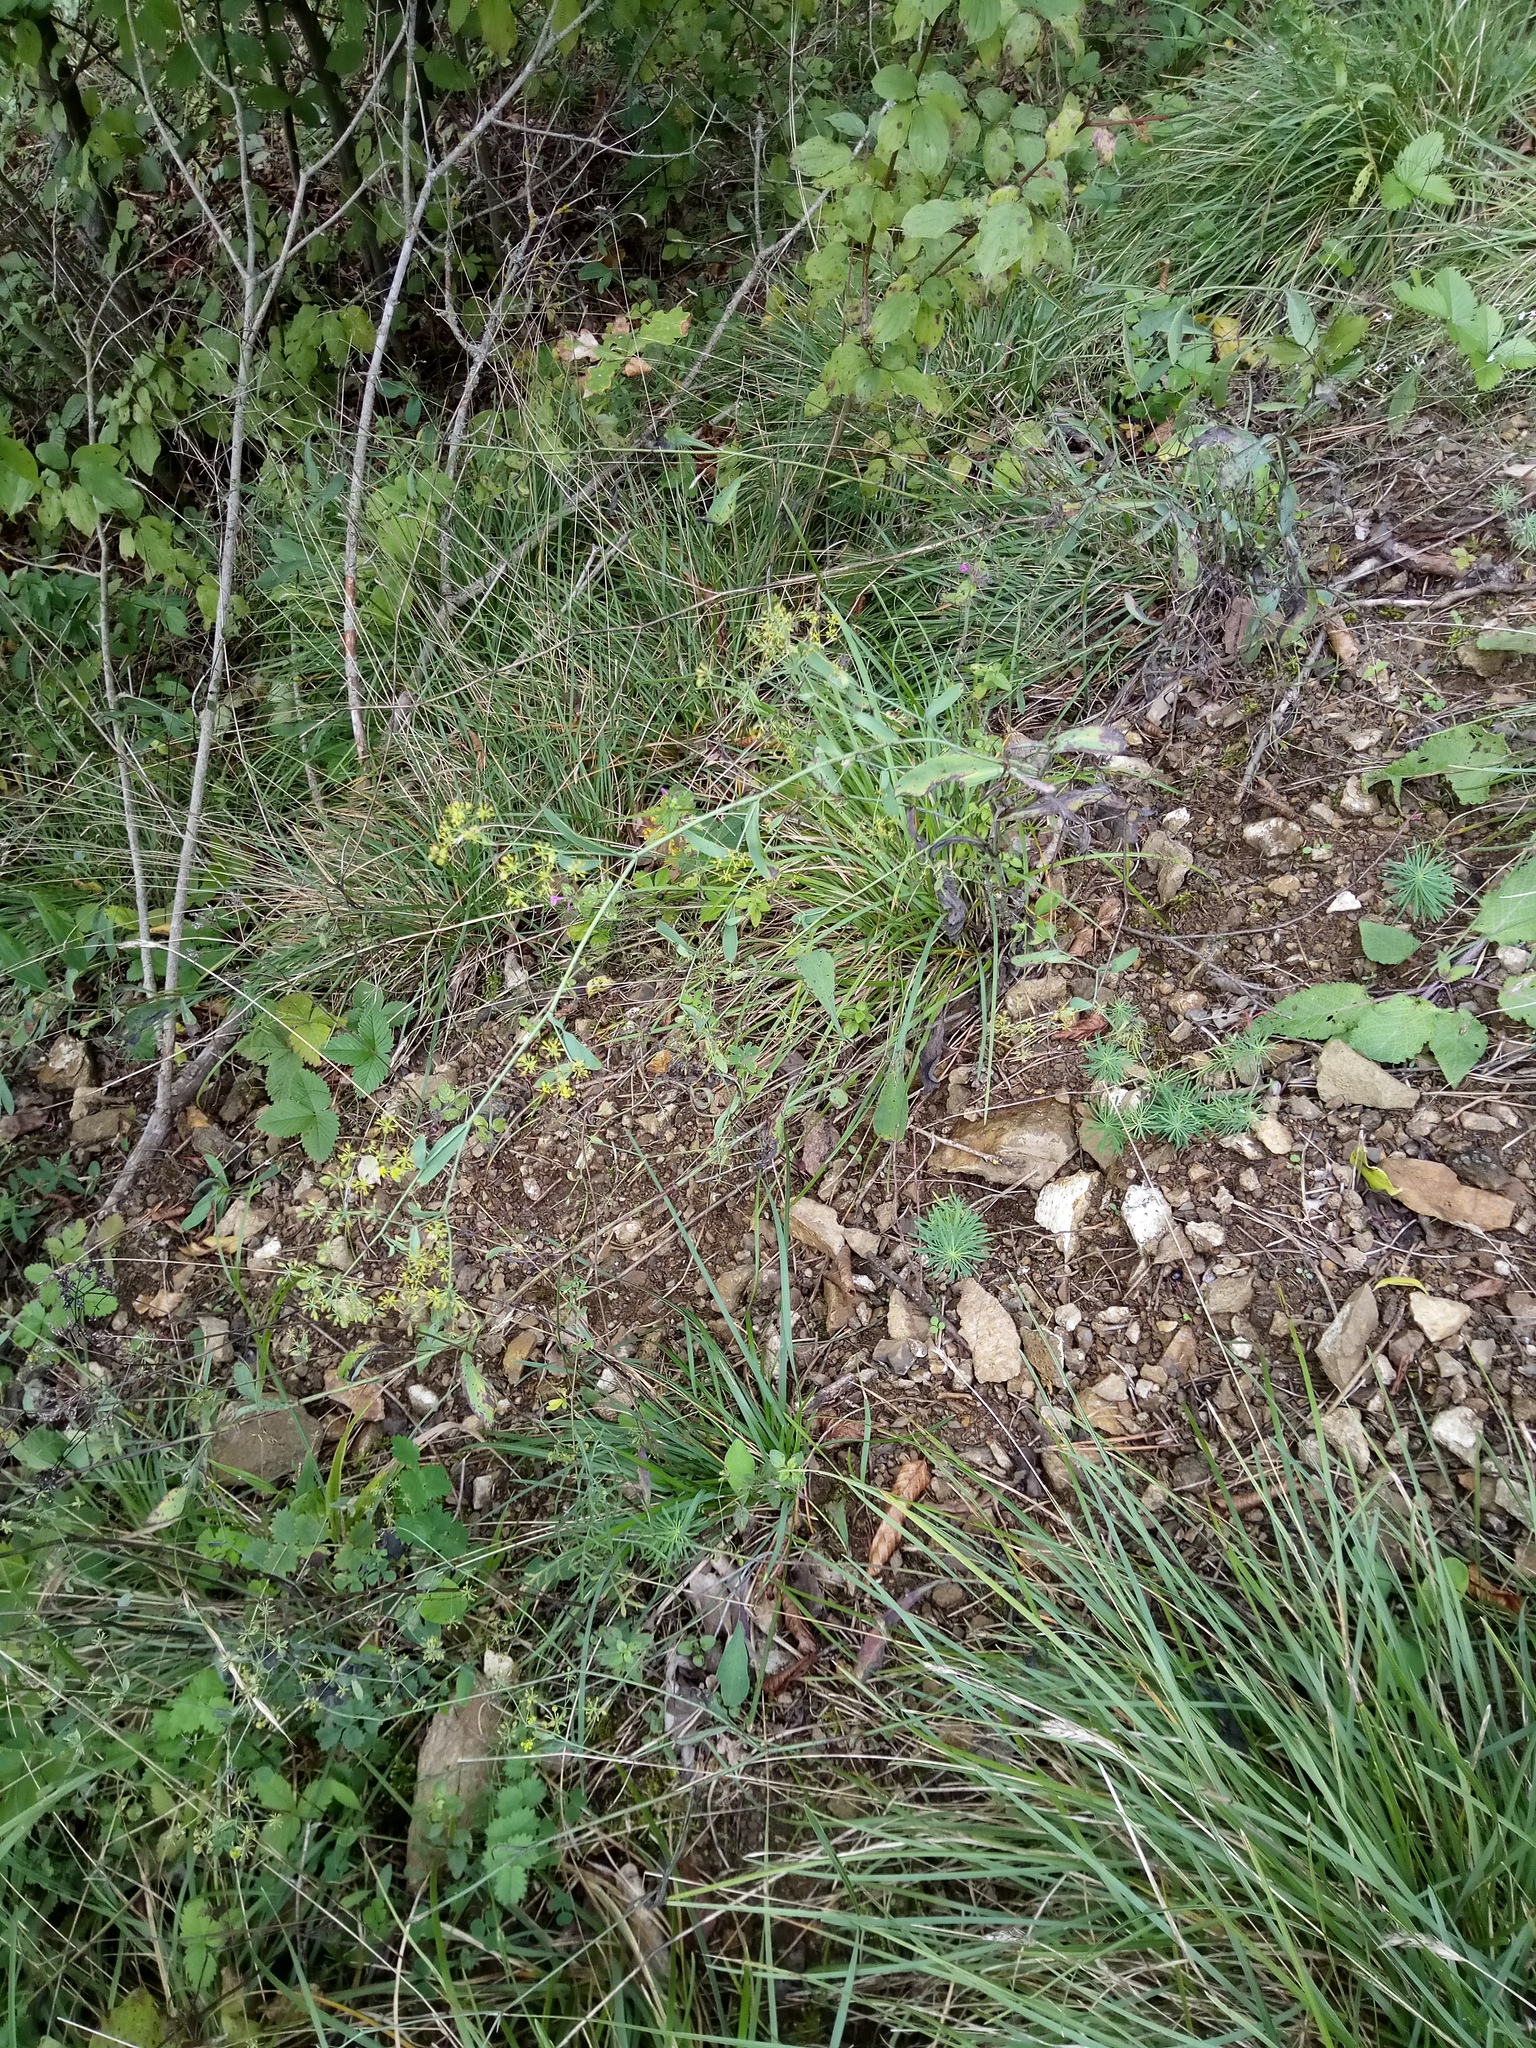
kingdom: Plantae
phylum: Tracheophyta
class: Magnoliopsida
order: Apiales
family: Apiaceae
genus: Bupleurum
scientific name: Bupleurum falcatum
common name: Sickle-leaved hare's-ear
